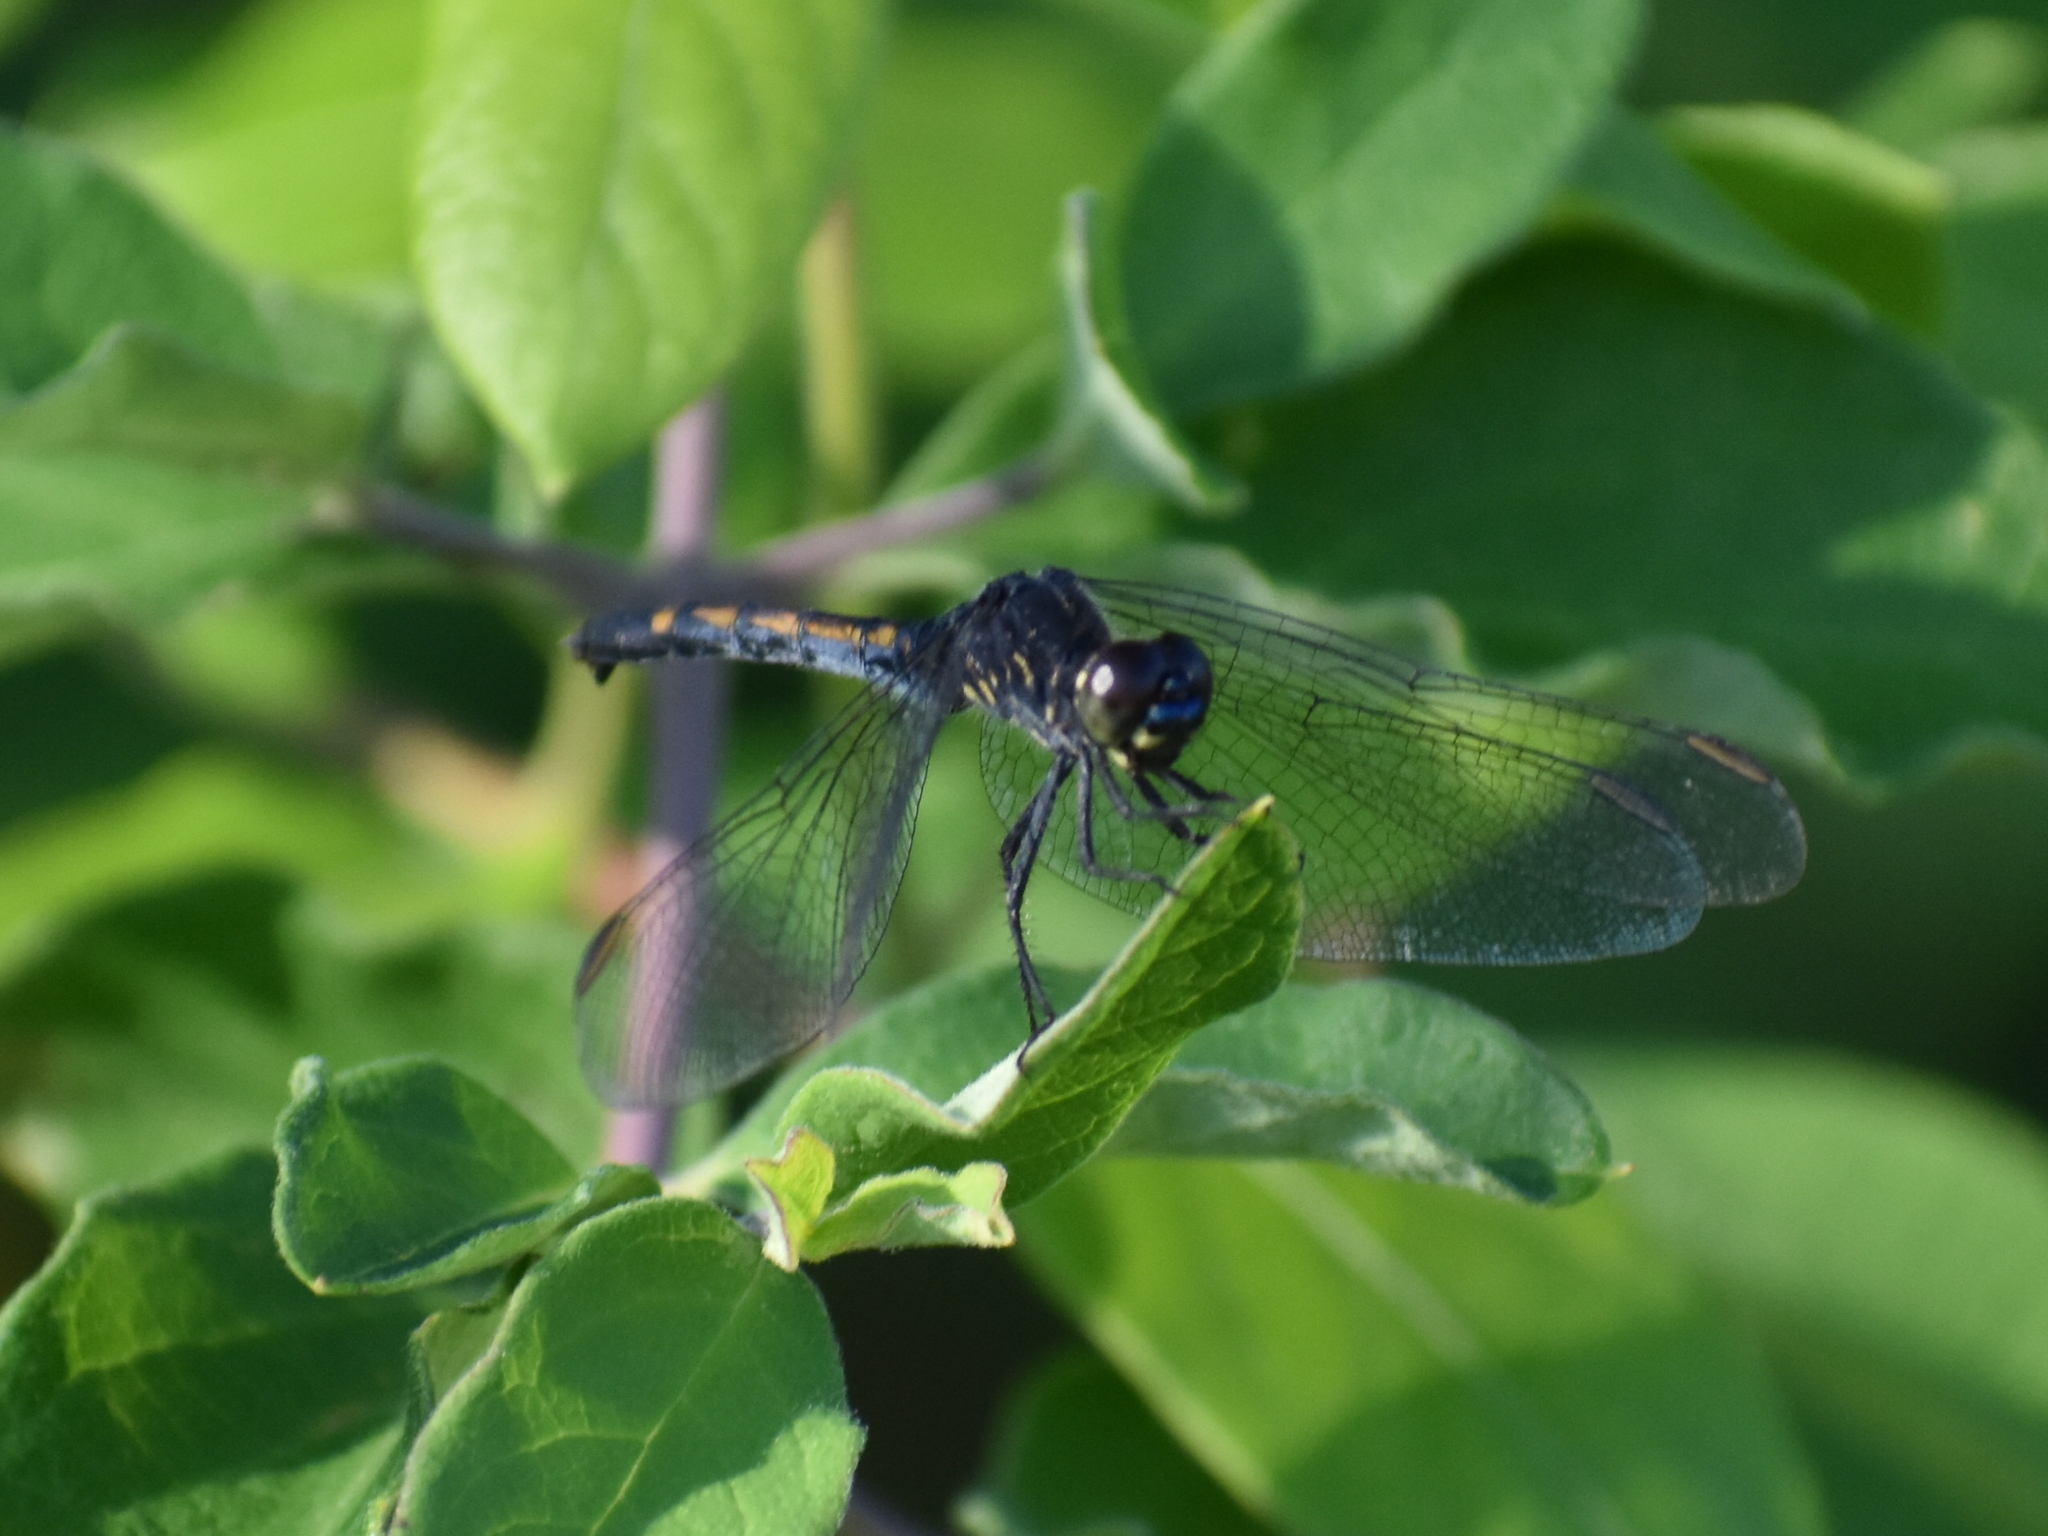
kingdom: Animalia
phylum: Arthropoda
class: Insecta
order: Odonata
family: Libellulidae
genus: Erythrodiplax
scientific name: Erythrodiplax berenice
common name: Seaside dragonlet
